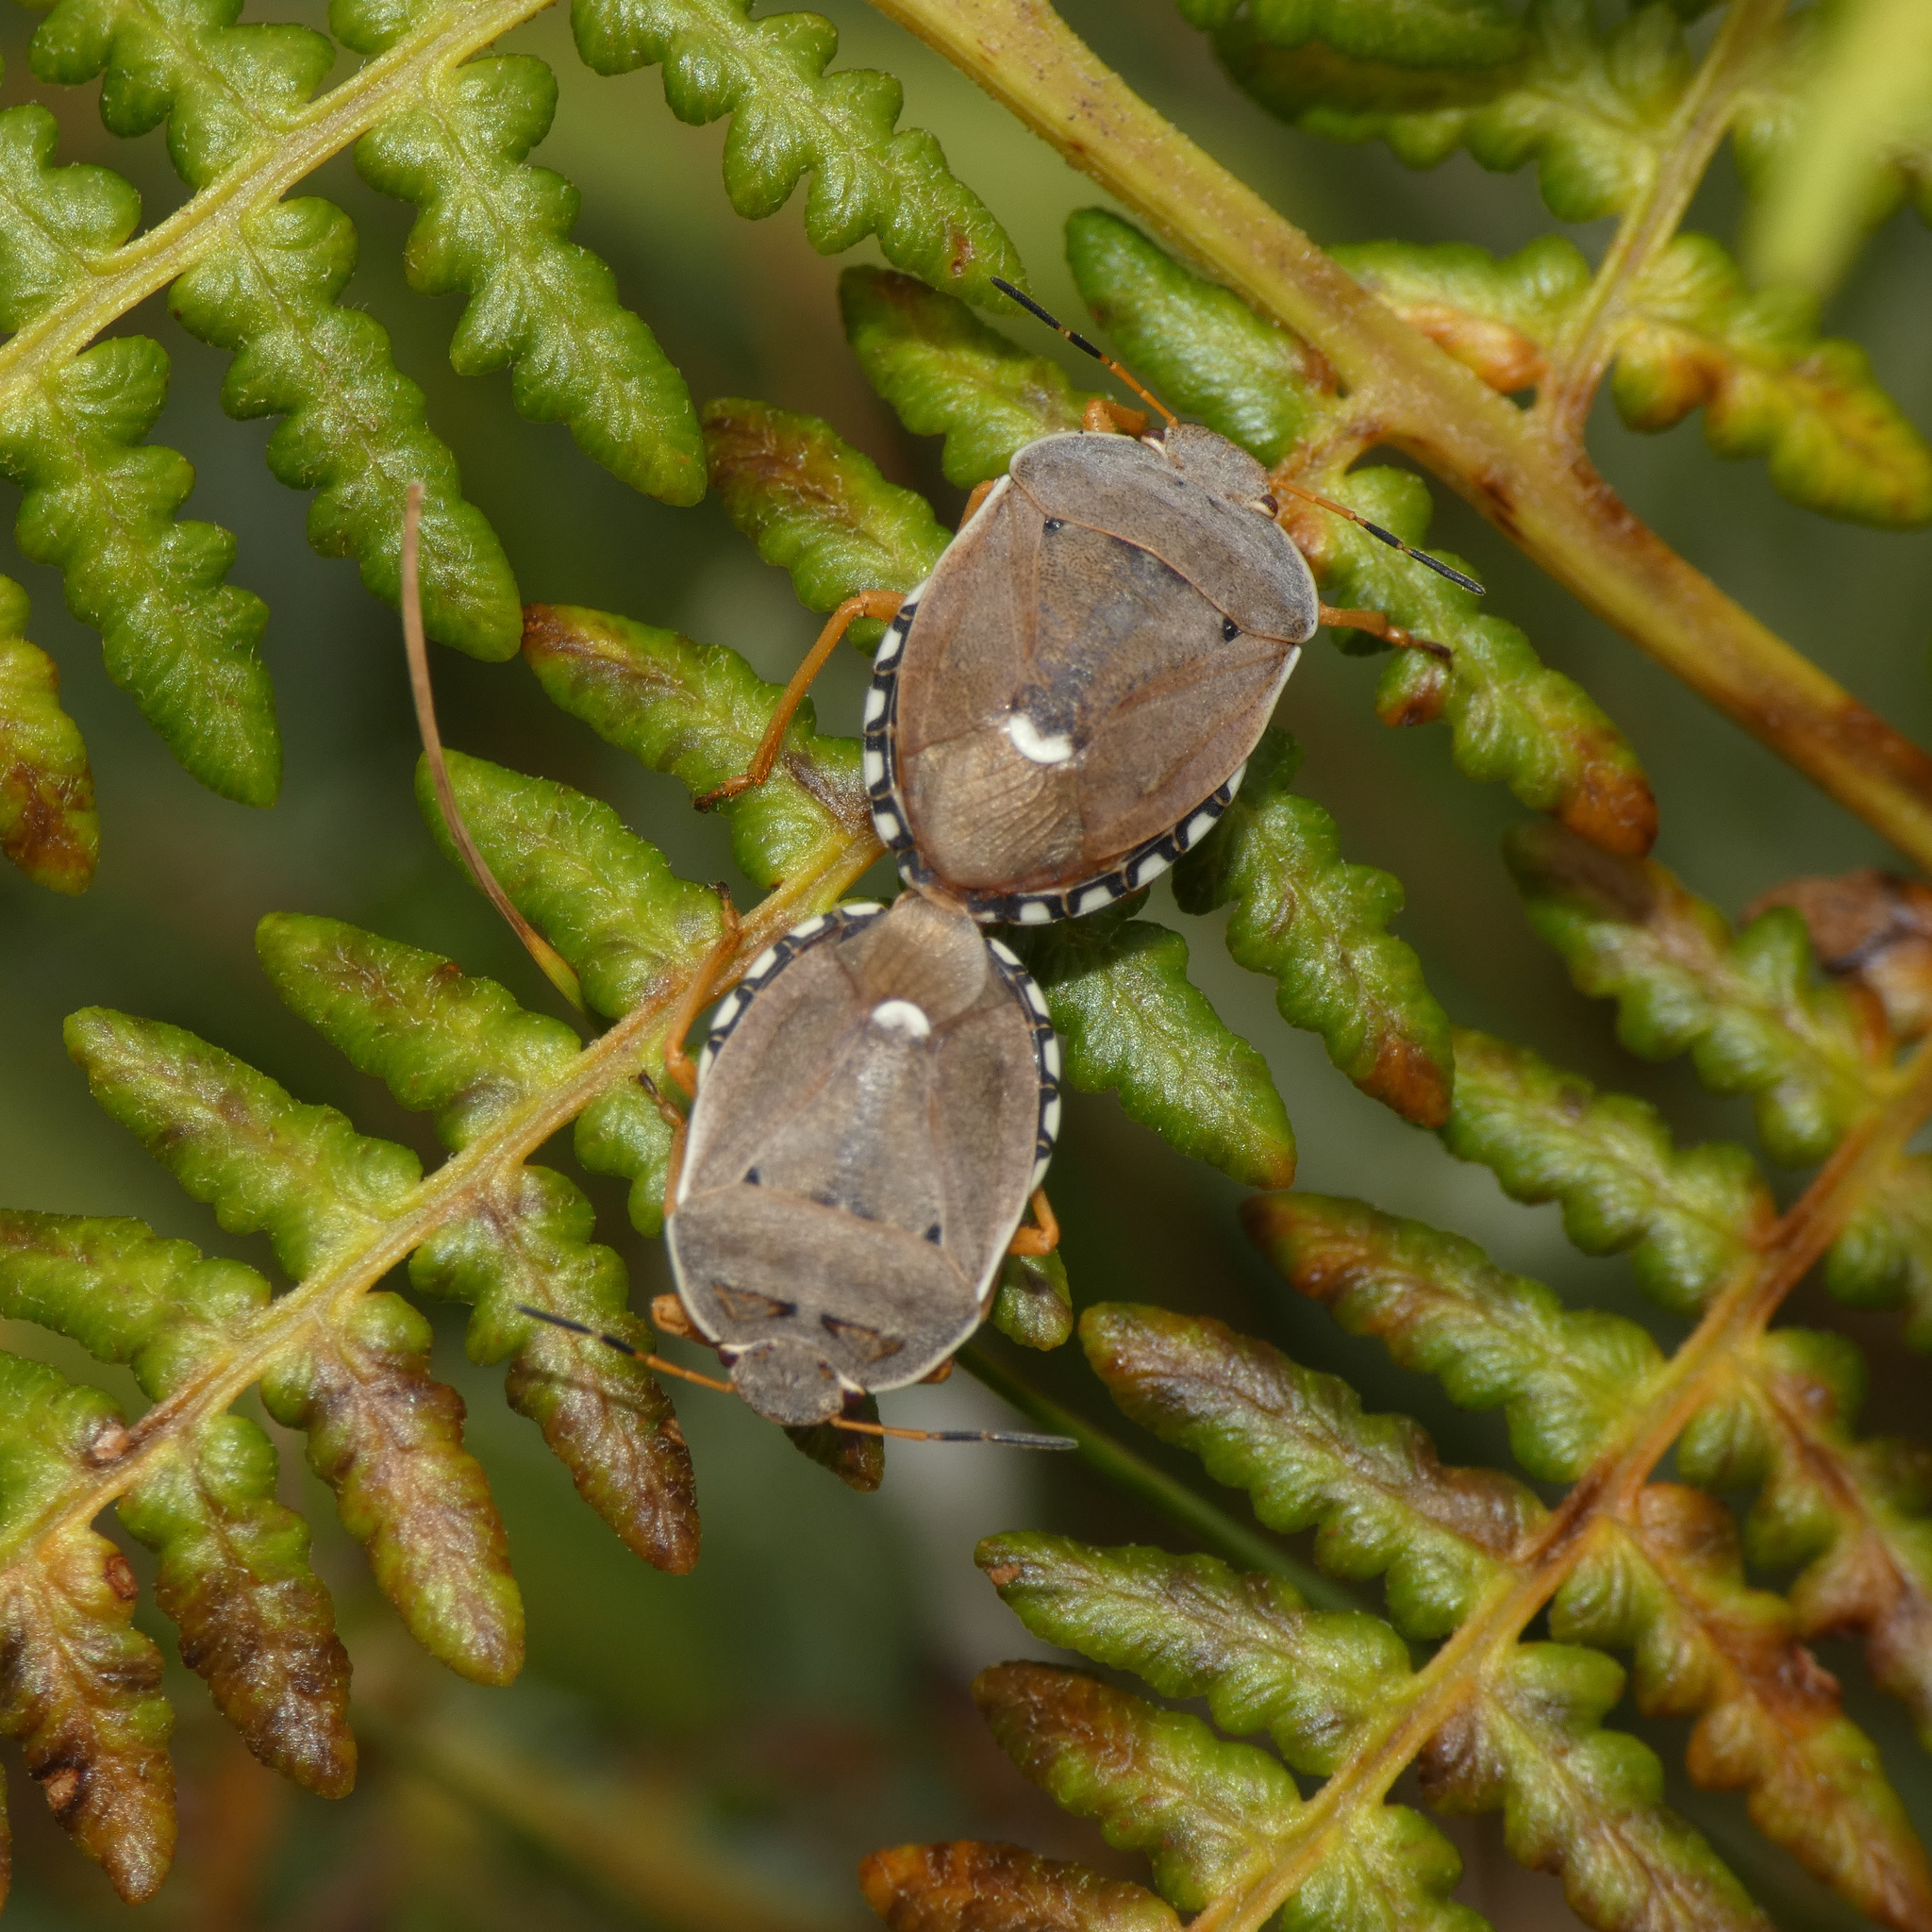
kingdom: Animalia
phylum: Arthropoda
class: Insecta
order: Hemiptera
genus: Erachtheus
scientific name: Erachtheus
